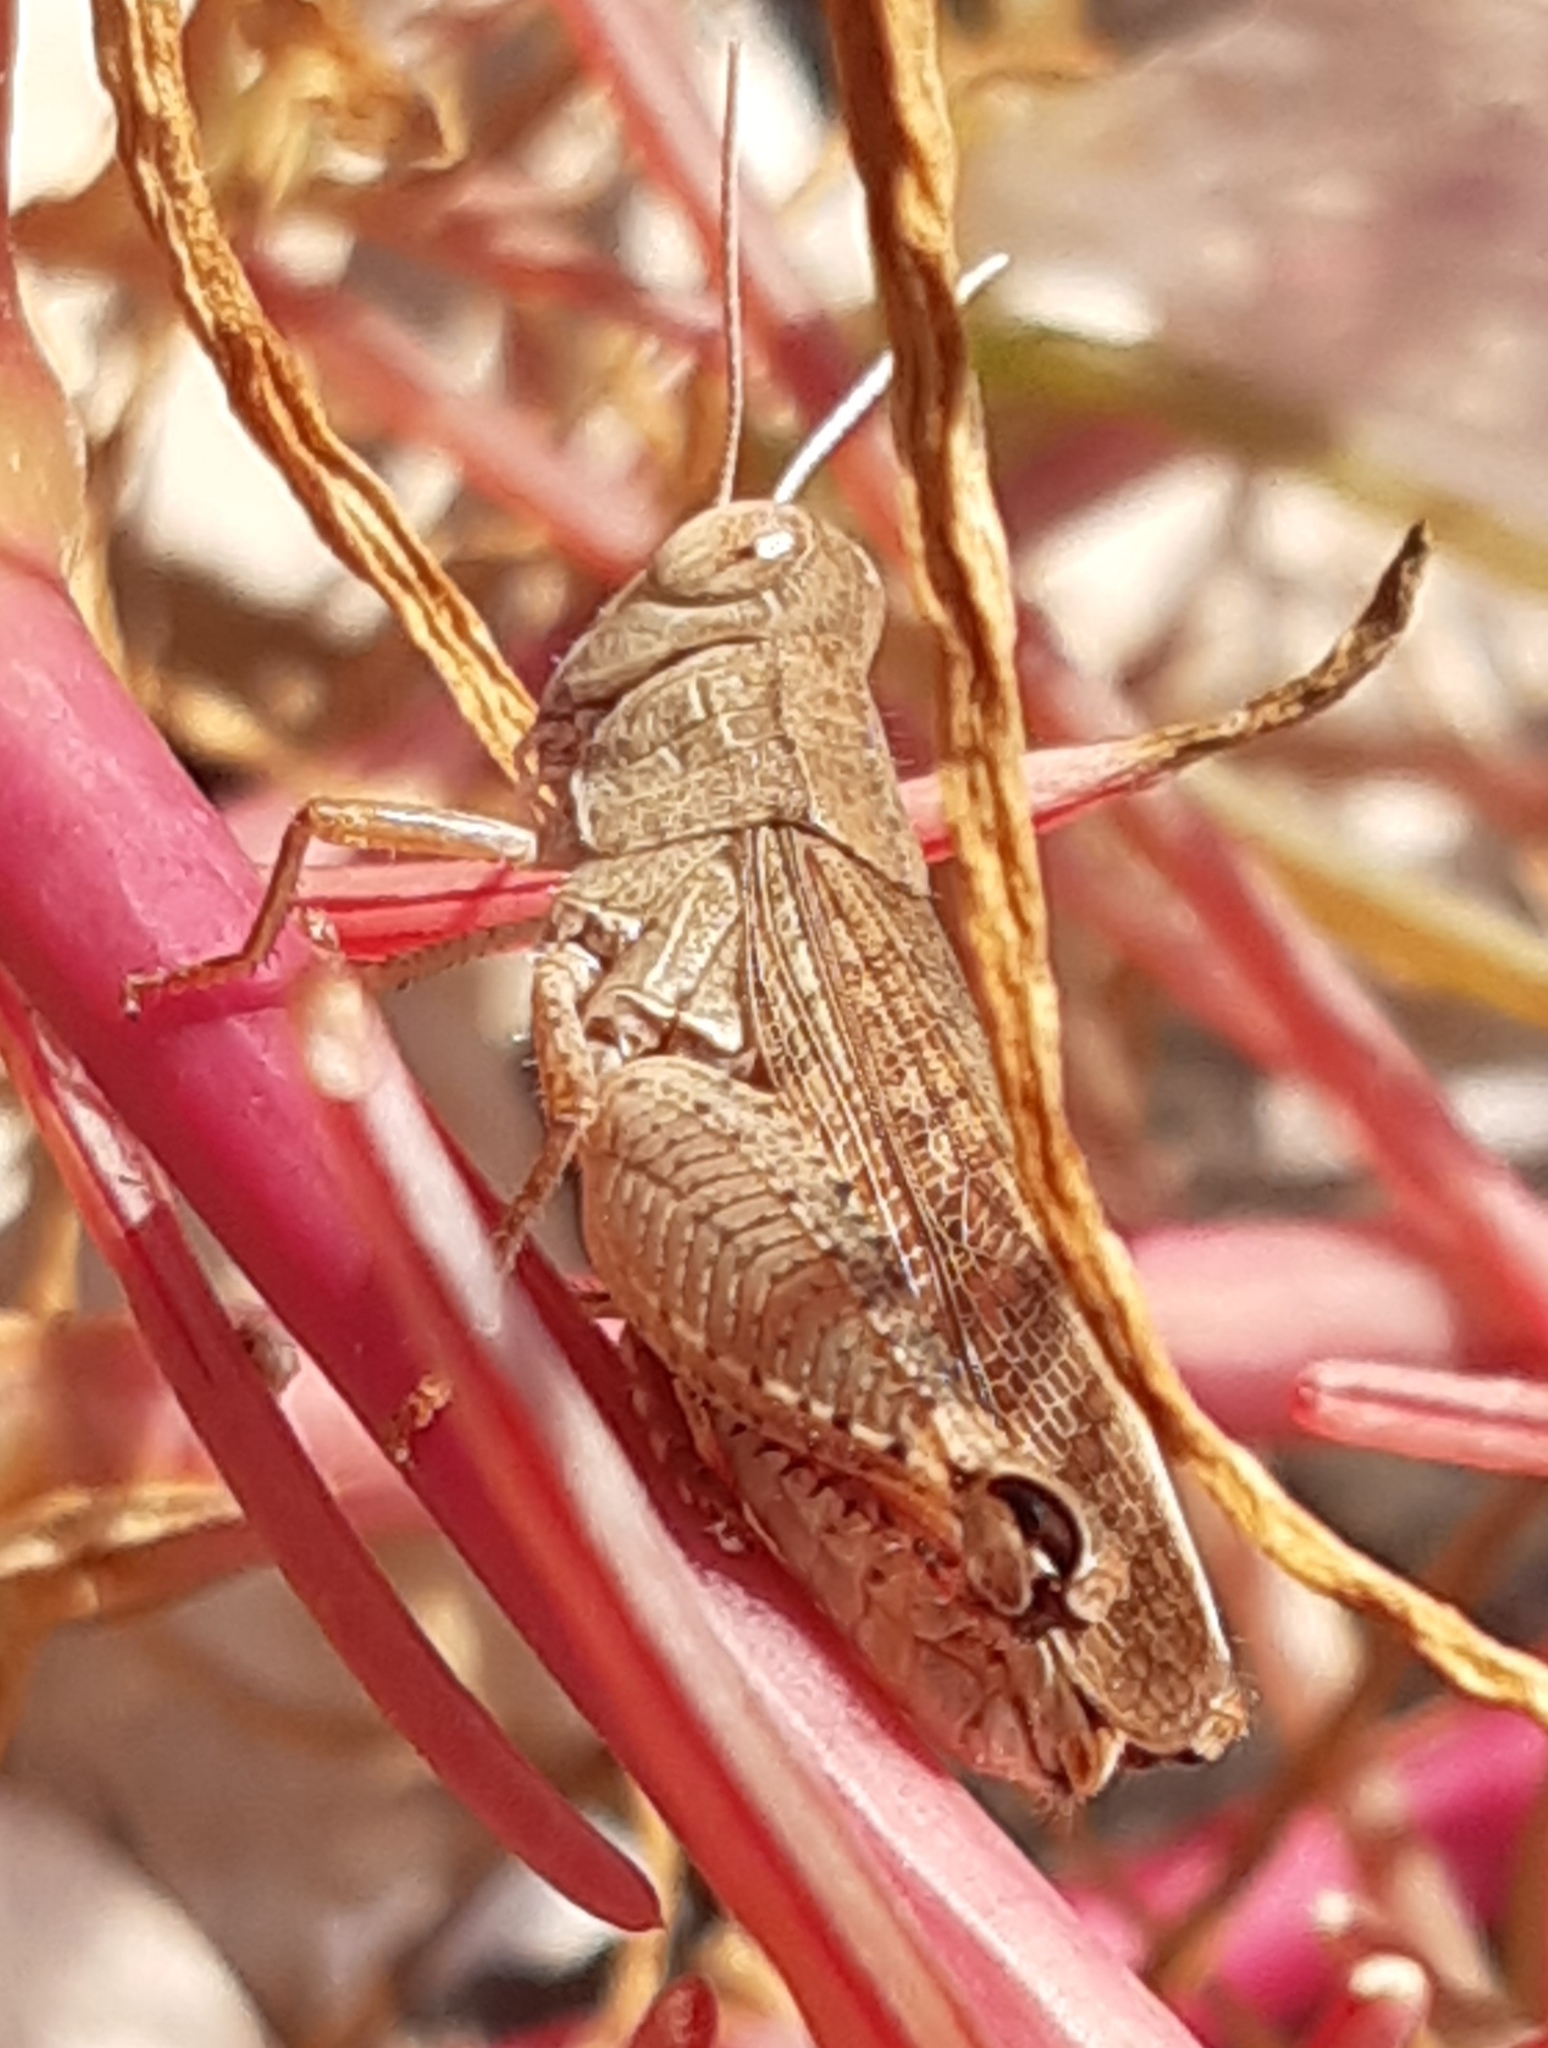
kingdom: Animalia
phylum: Arthropoda
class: Insecta
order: Orthoptera
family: Acrididae
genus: Calliptamus
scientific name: Calliptamus italicus
